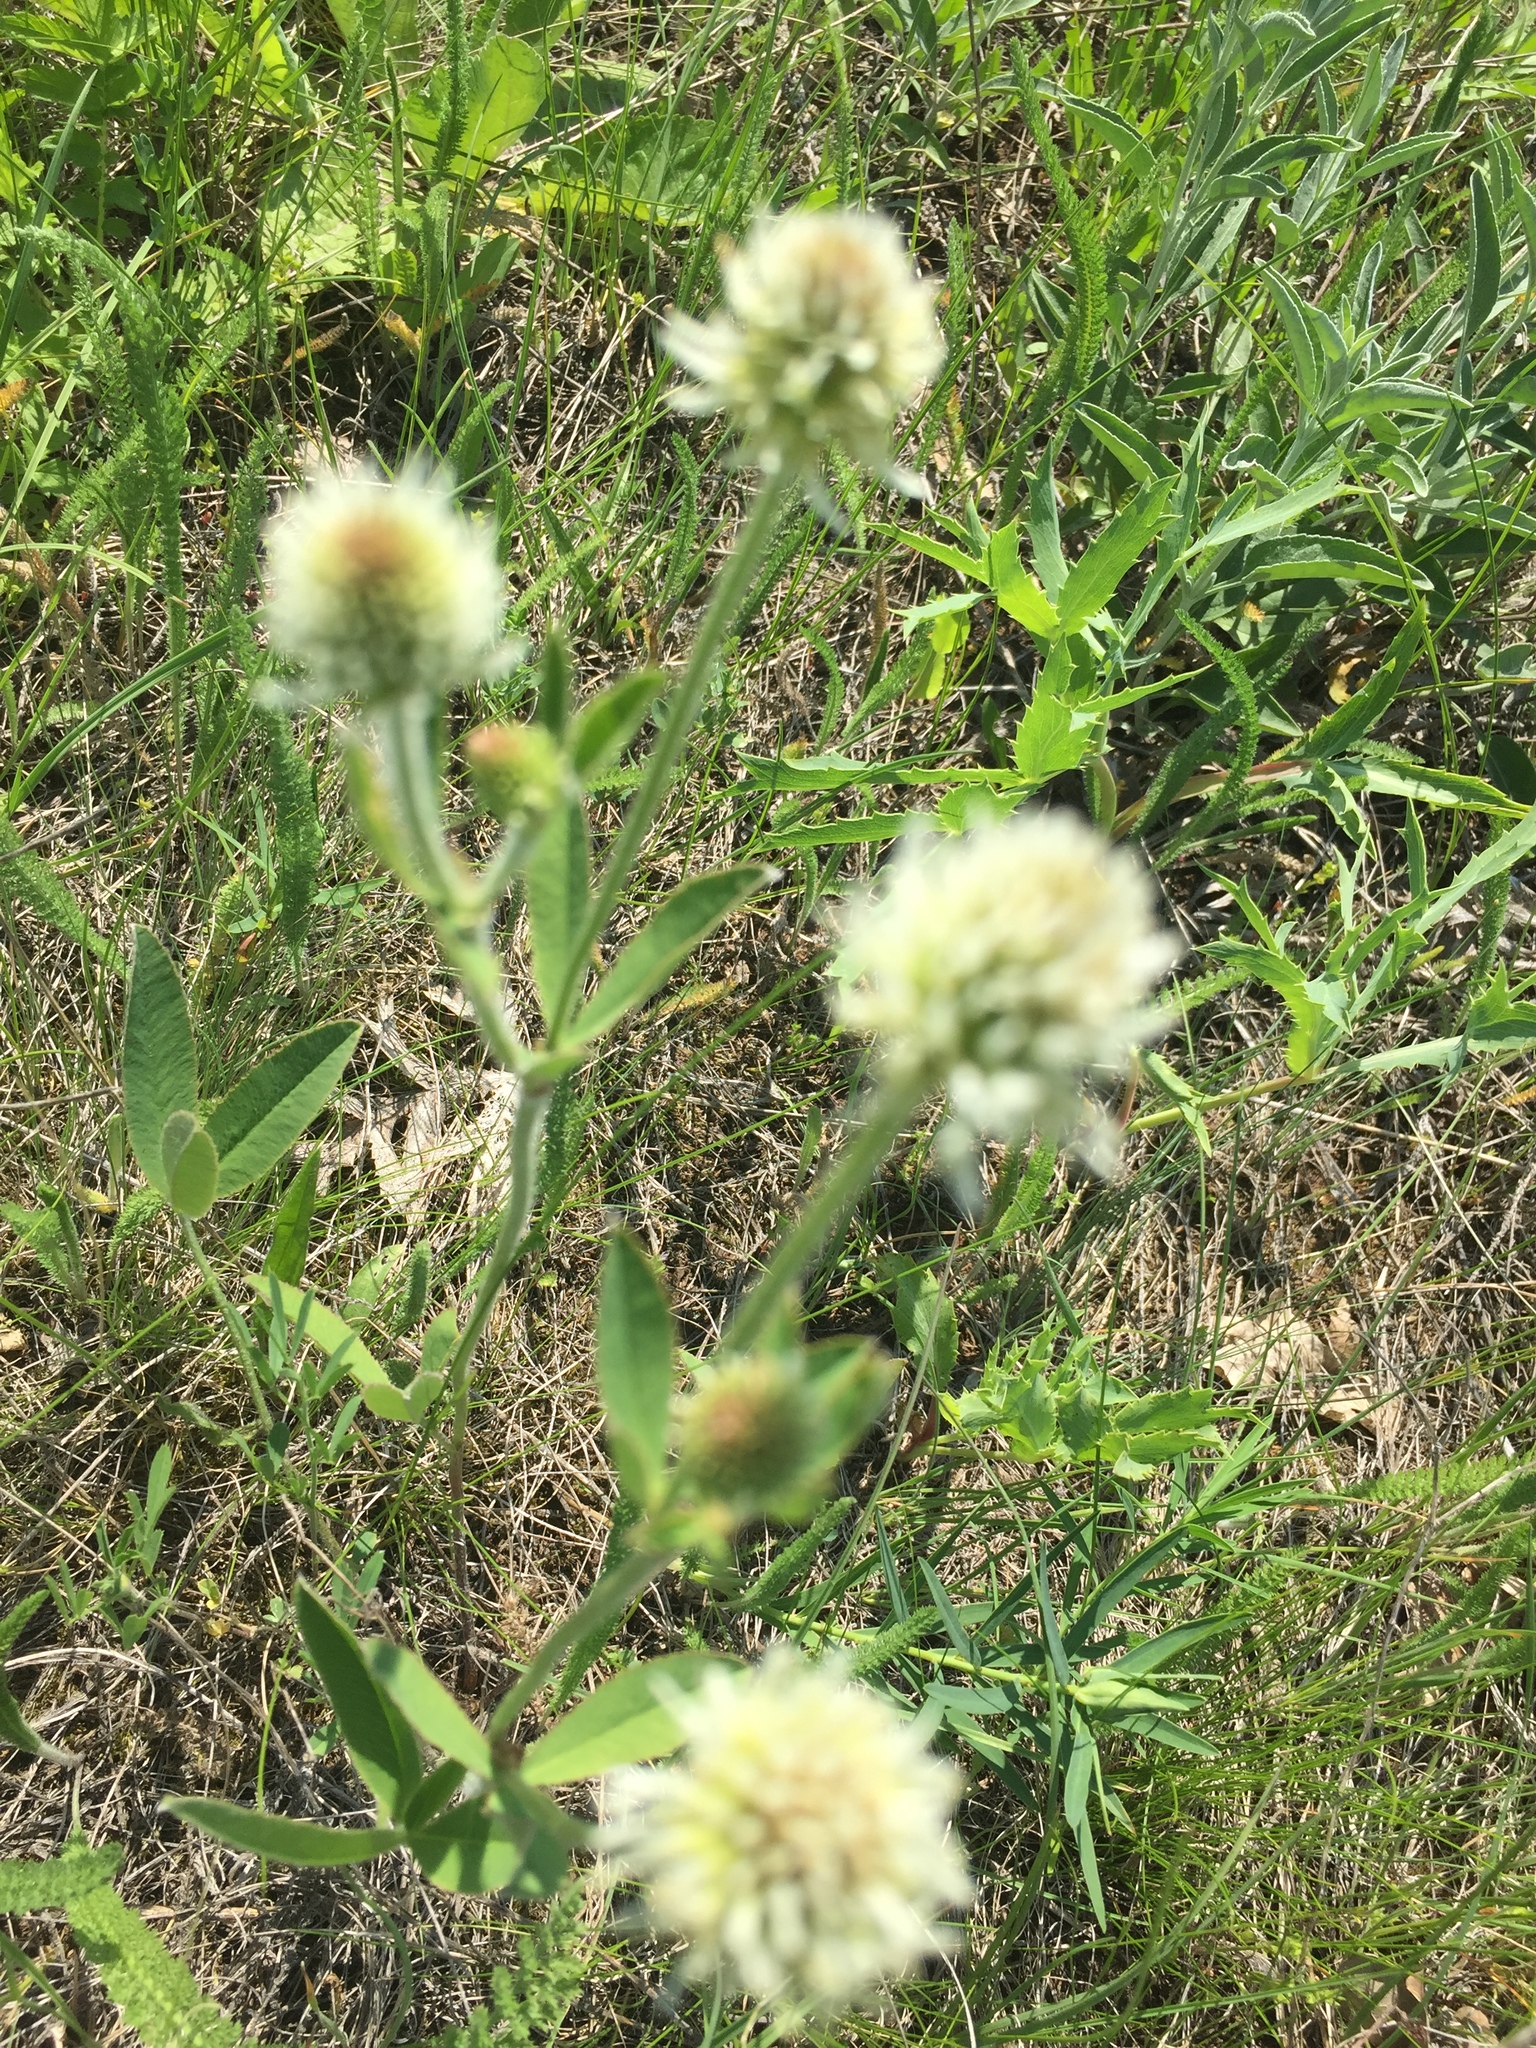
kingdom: Plantae
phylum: Tracheophyta
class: Magnoliopsida
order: Fabales
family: Fabaceae
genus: Trifolium
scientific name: Trifolium montanum
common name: Mountain clover
